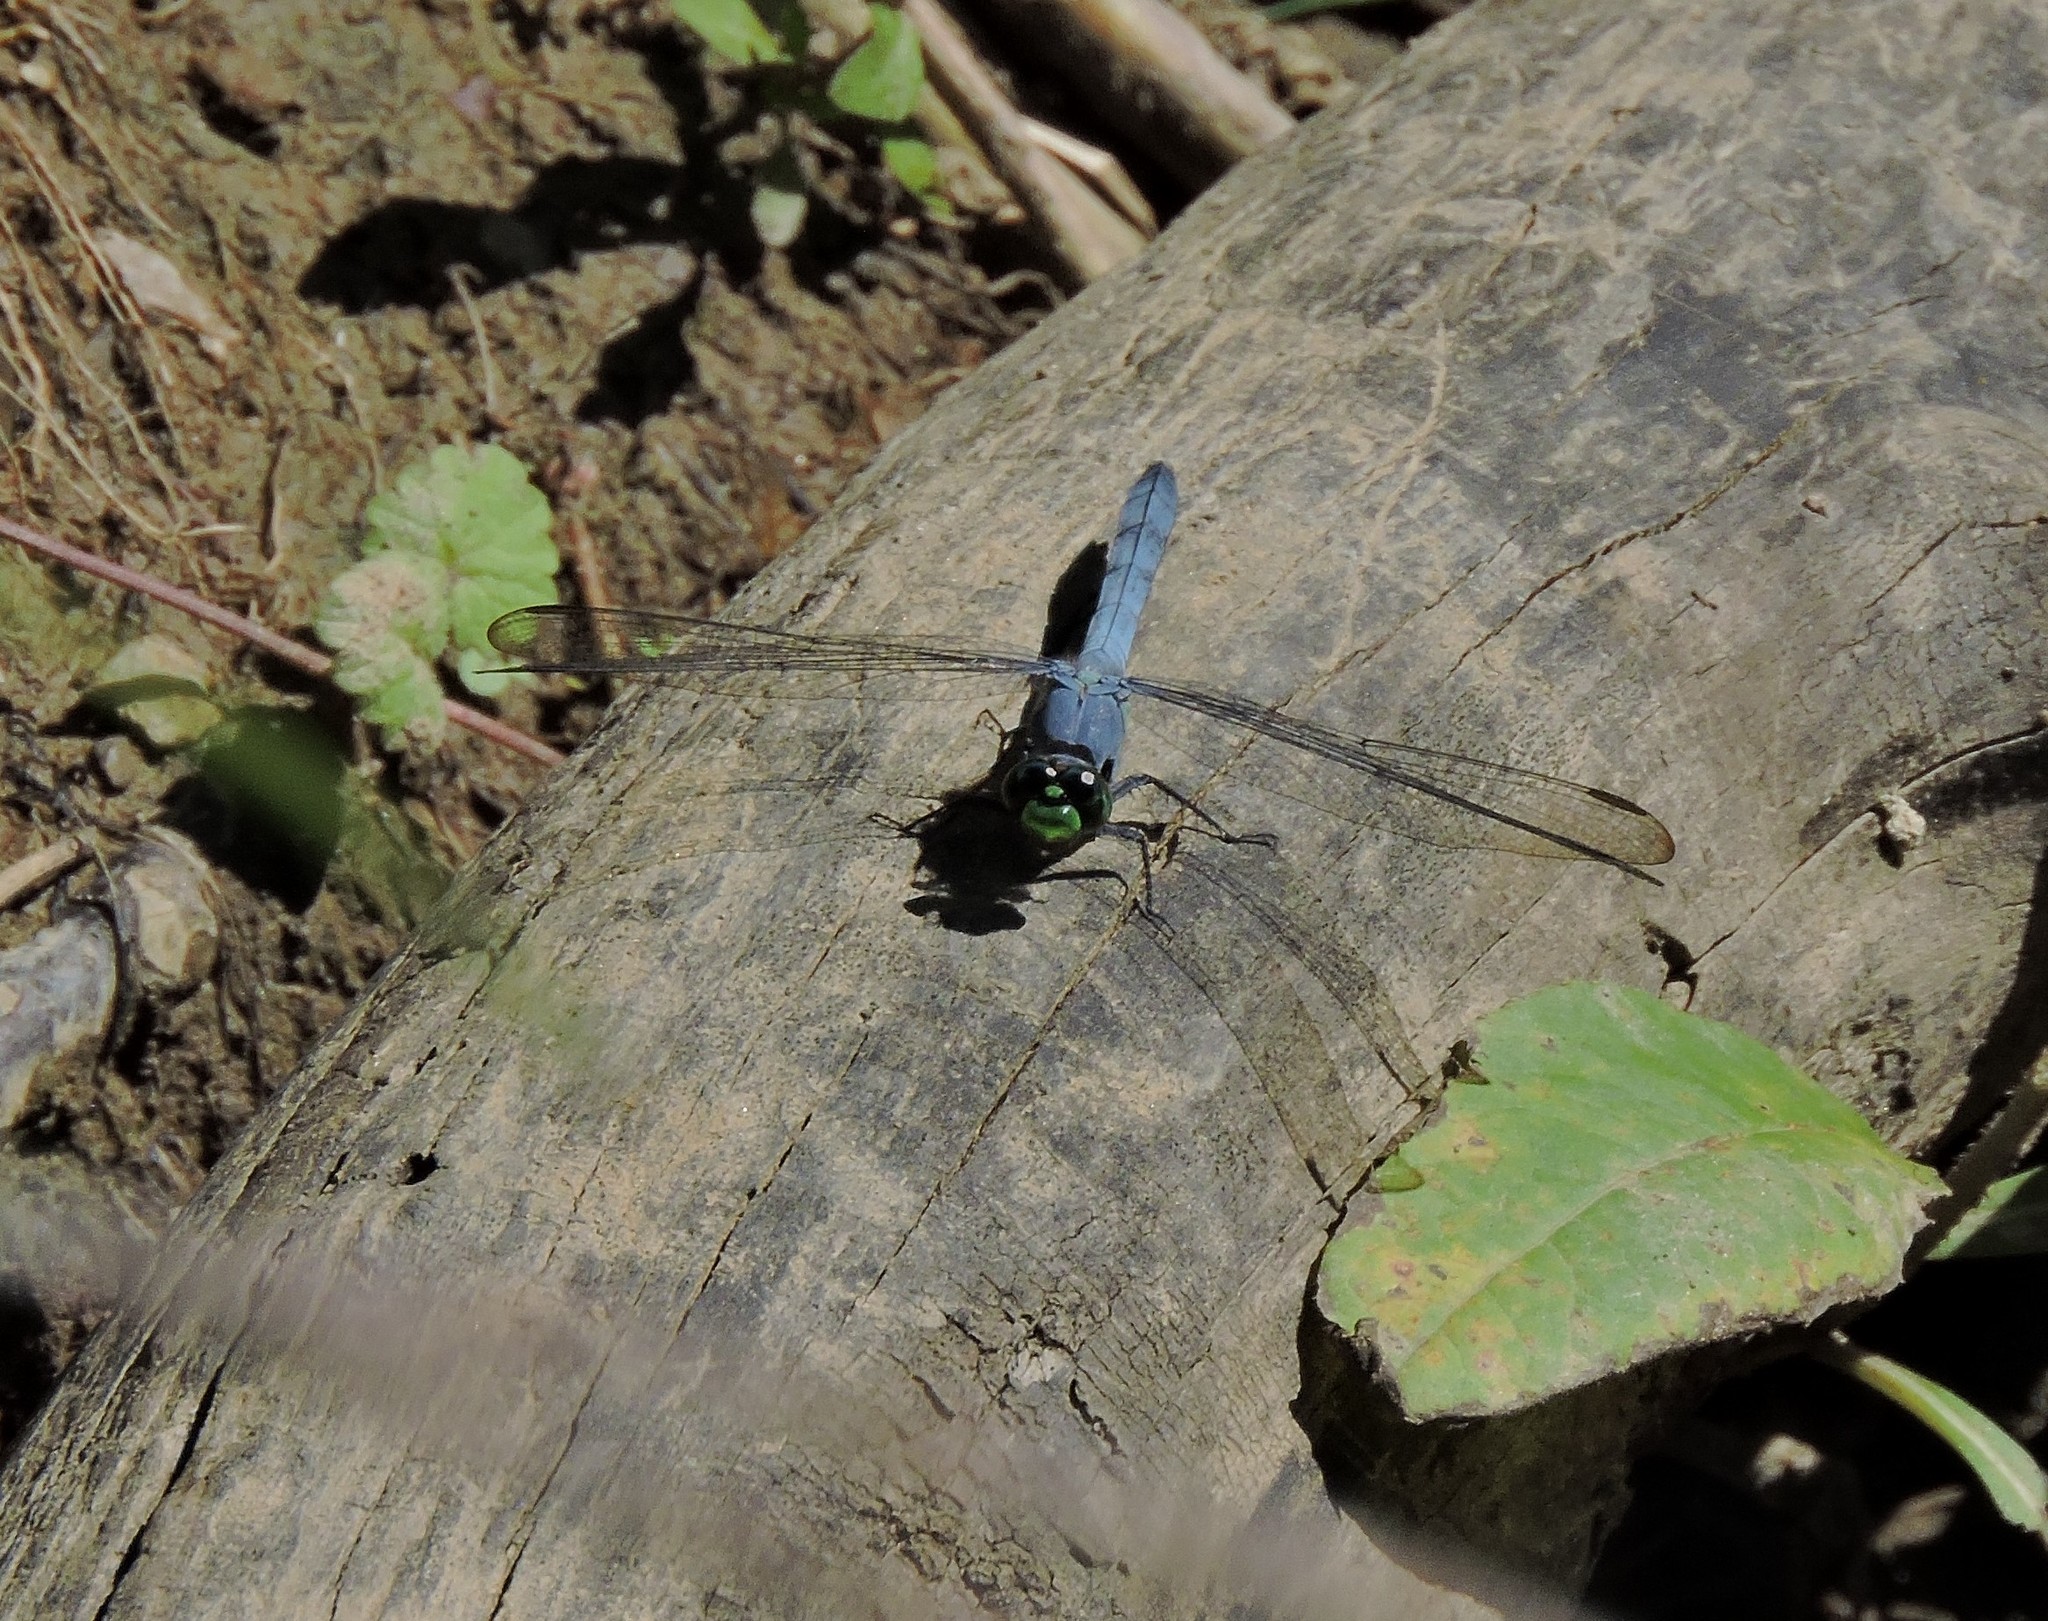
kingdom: Animalia
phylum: Arthropoda
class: Insecta
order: Odonata
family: Libellulidae
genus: Erythemis
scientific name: Erythemis simplicicollis
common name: Eastern pondhawk
